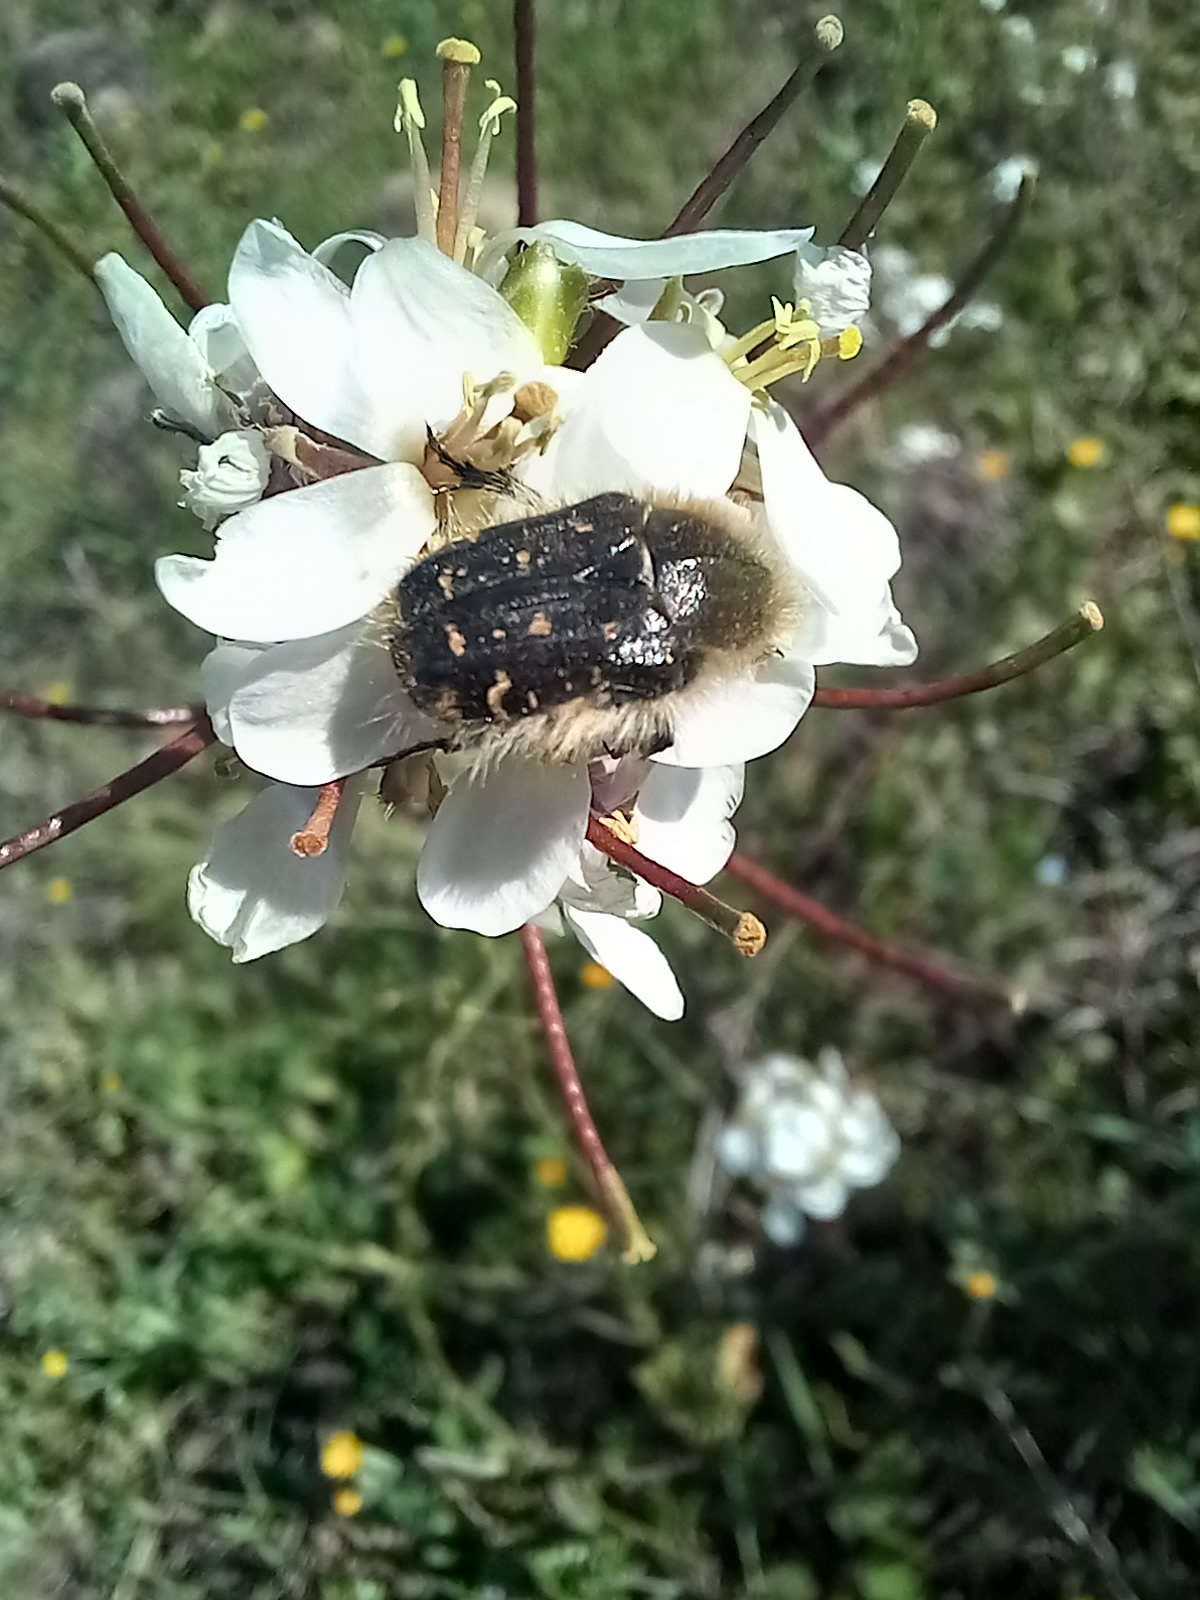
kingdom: Animalia
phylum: Arthropoda
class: Insecta
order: Coleoptera
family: Scarabaeidae
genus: Tropinota
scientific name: Tropinota squalida
